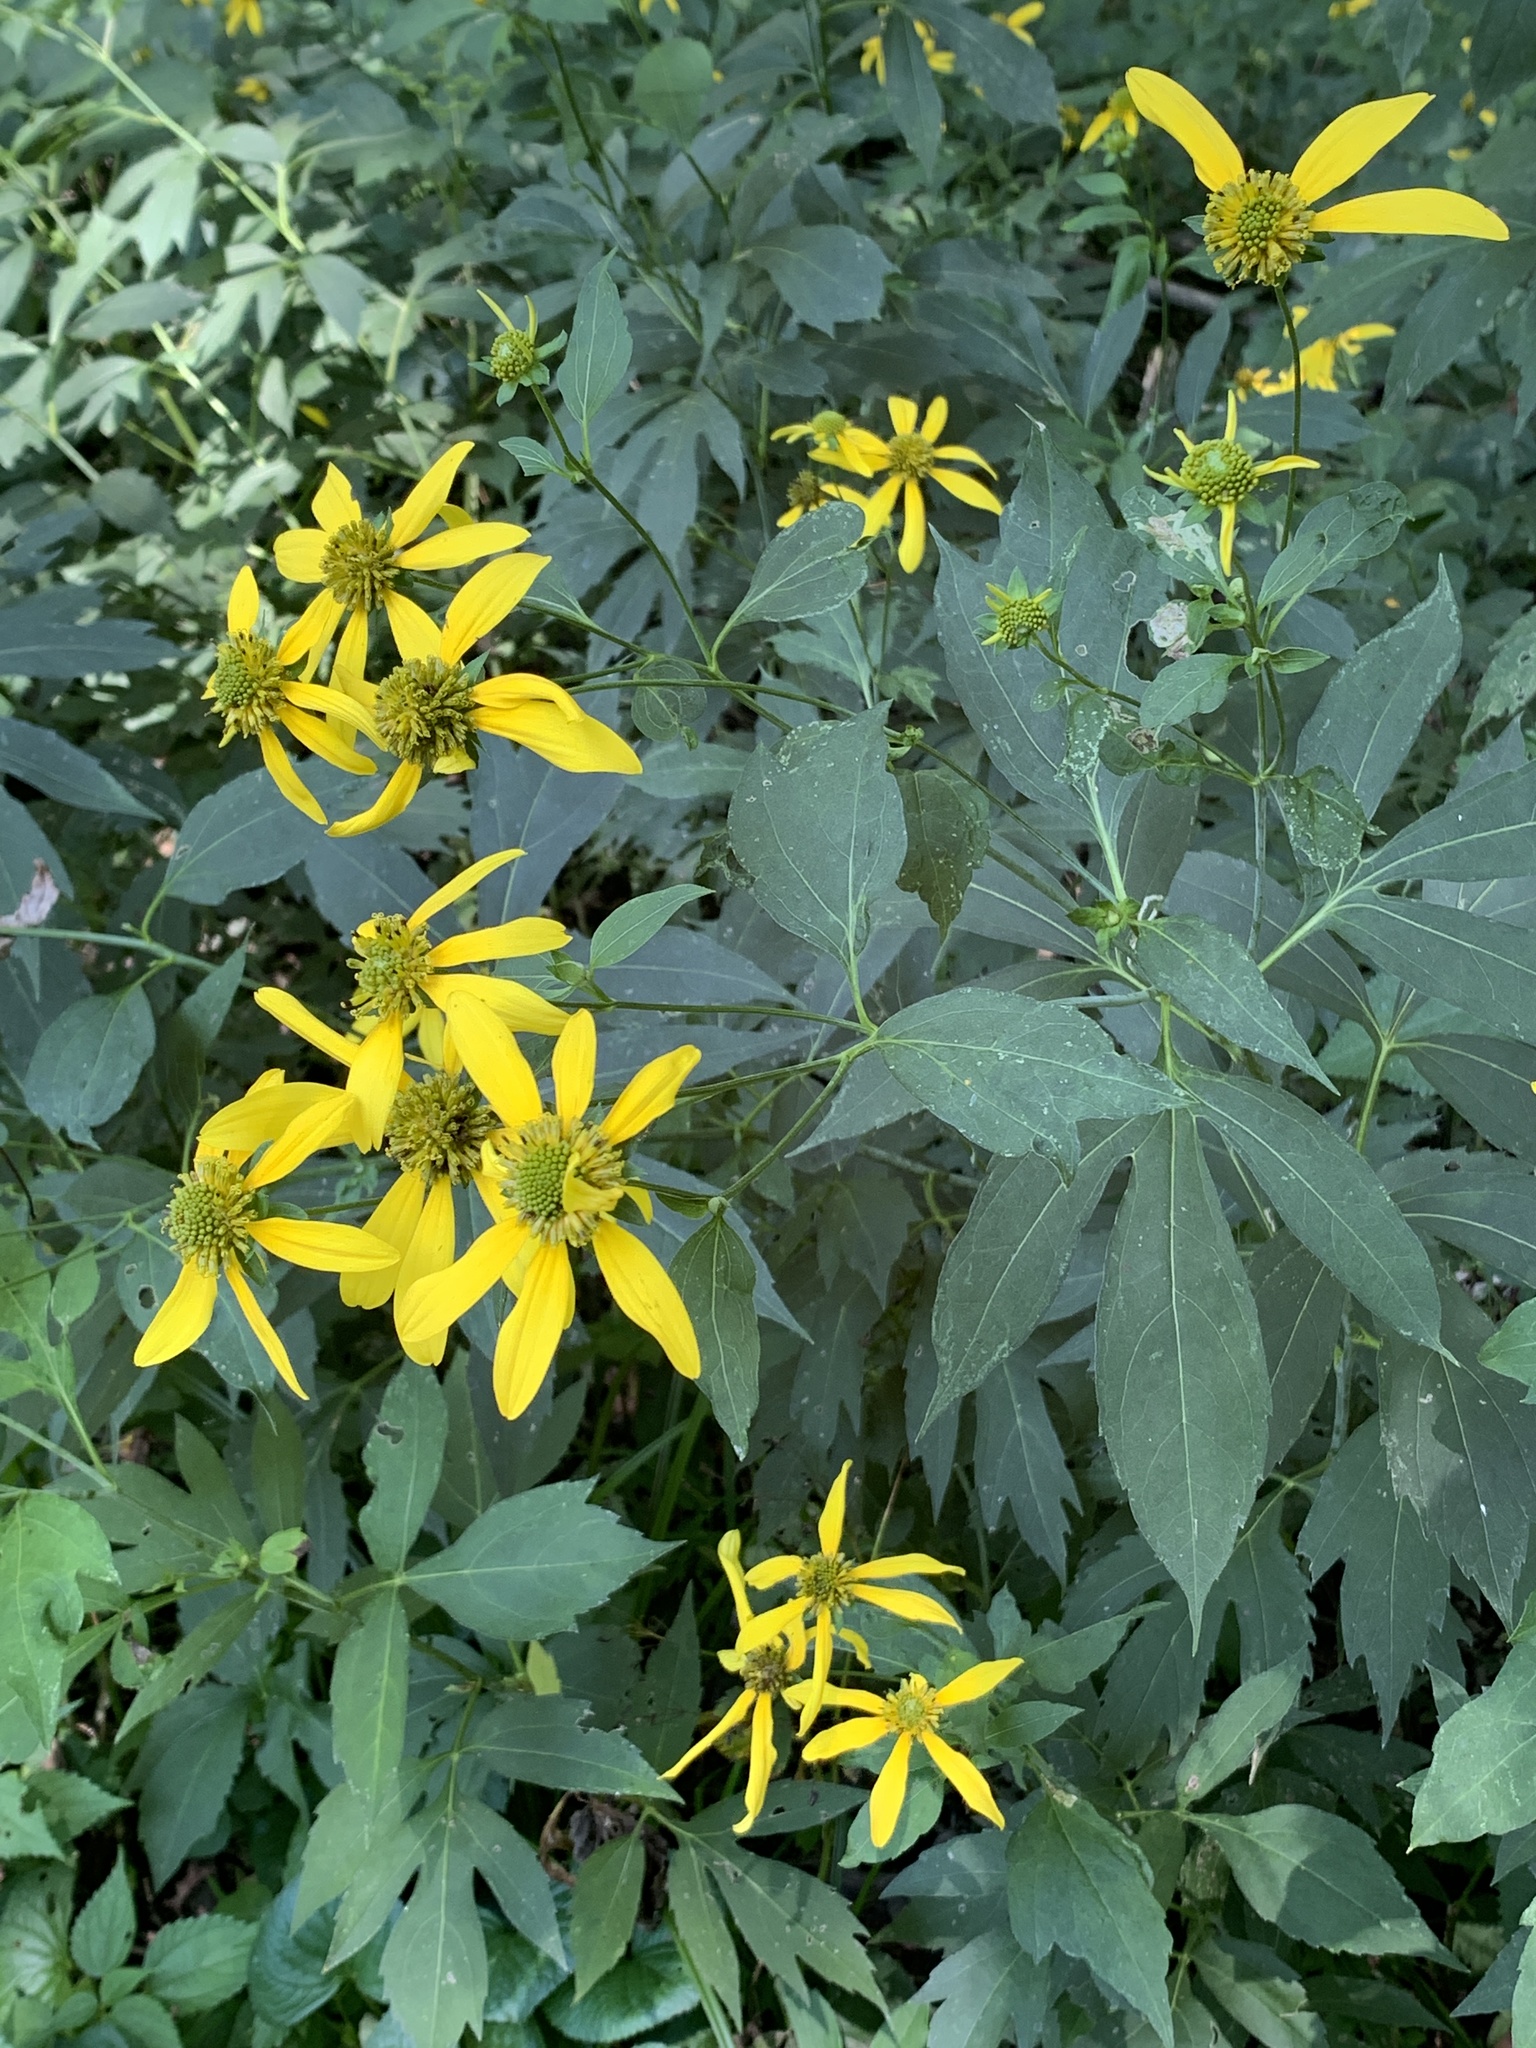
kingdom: Plantae
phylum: Tracheophyta
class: Magnoliopsida
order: Asterales
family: Asteraceae
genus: Rudbeckia
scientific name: Rudbeckia laciniata
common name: Coneflower
